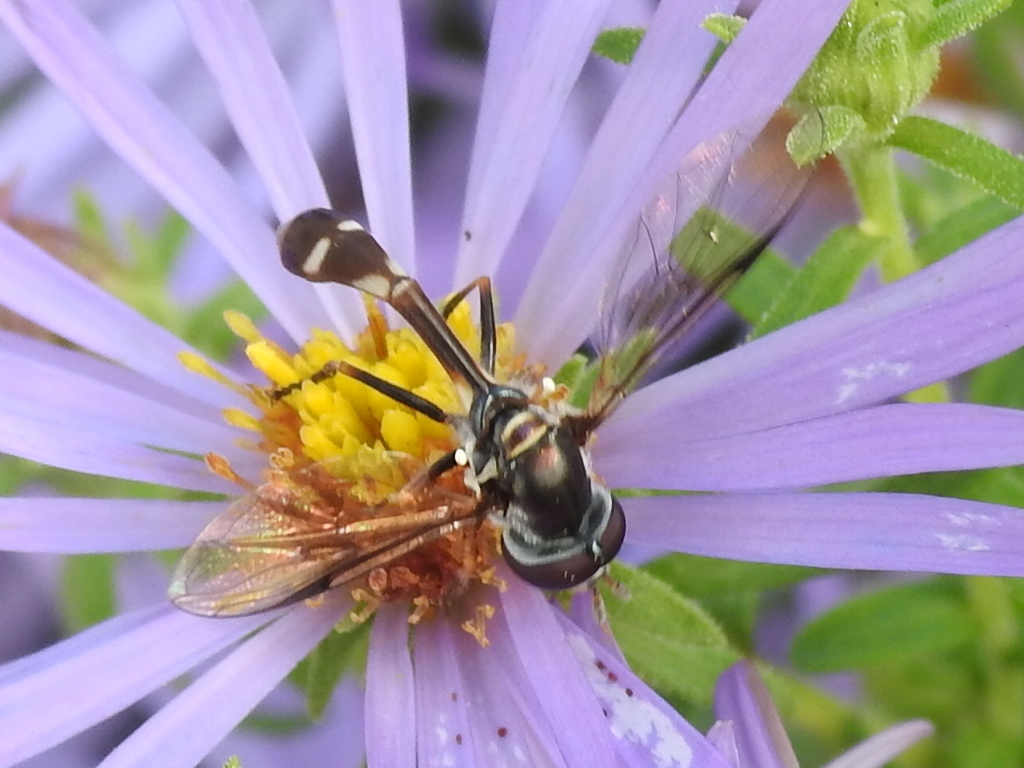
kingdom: Animalia
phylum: Arthropoda
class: Insecta
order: Diptera
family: Syrphidae
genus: Dioprosopa
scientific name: Dioprosopa clavatus
